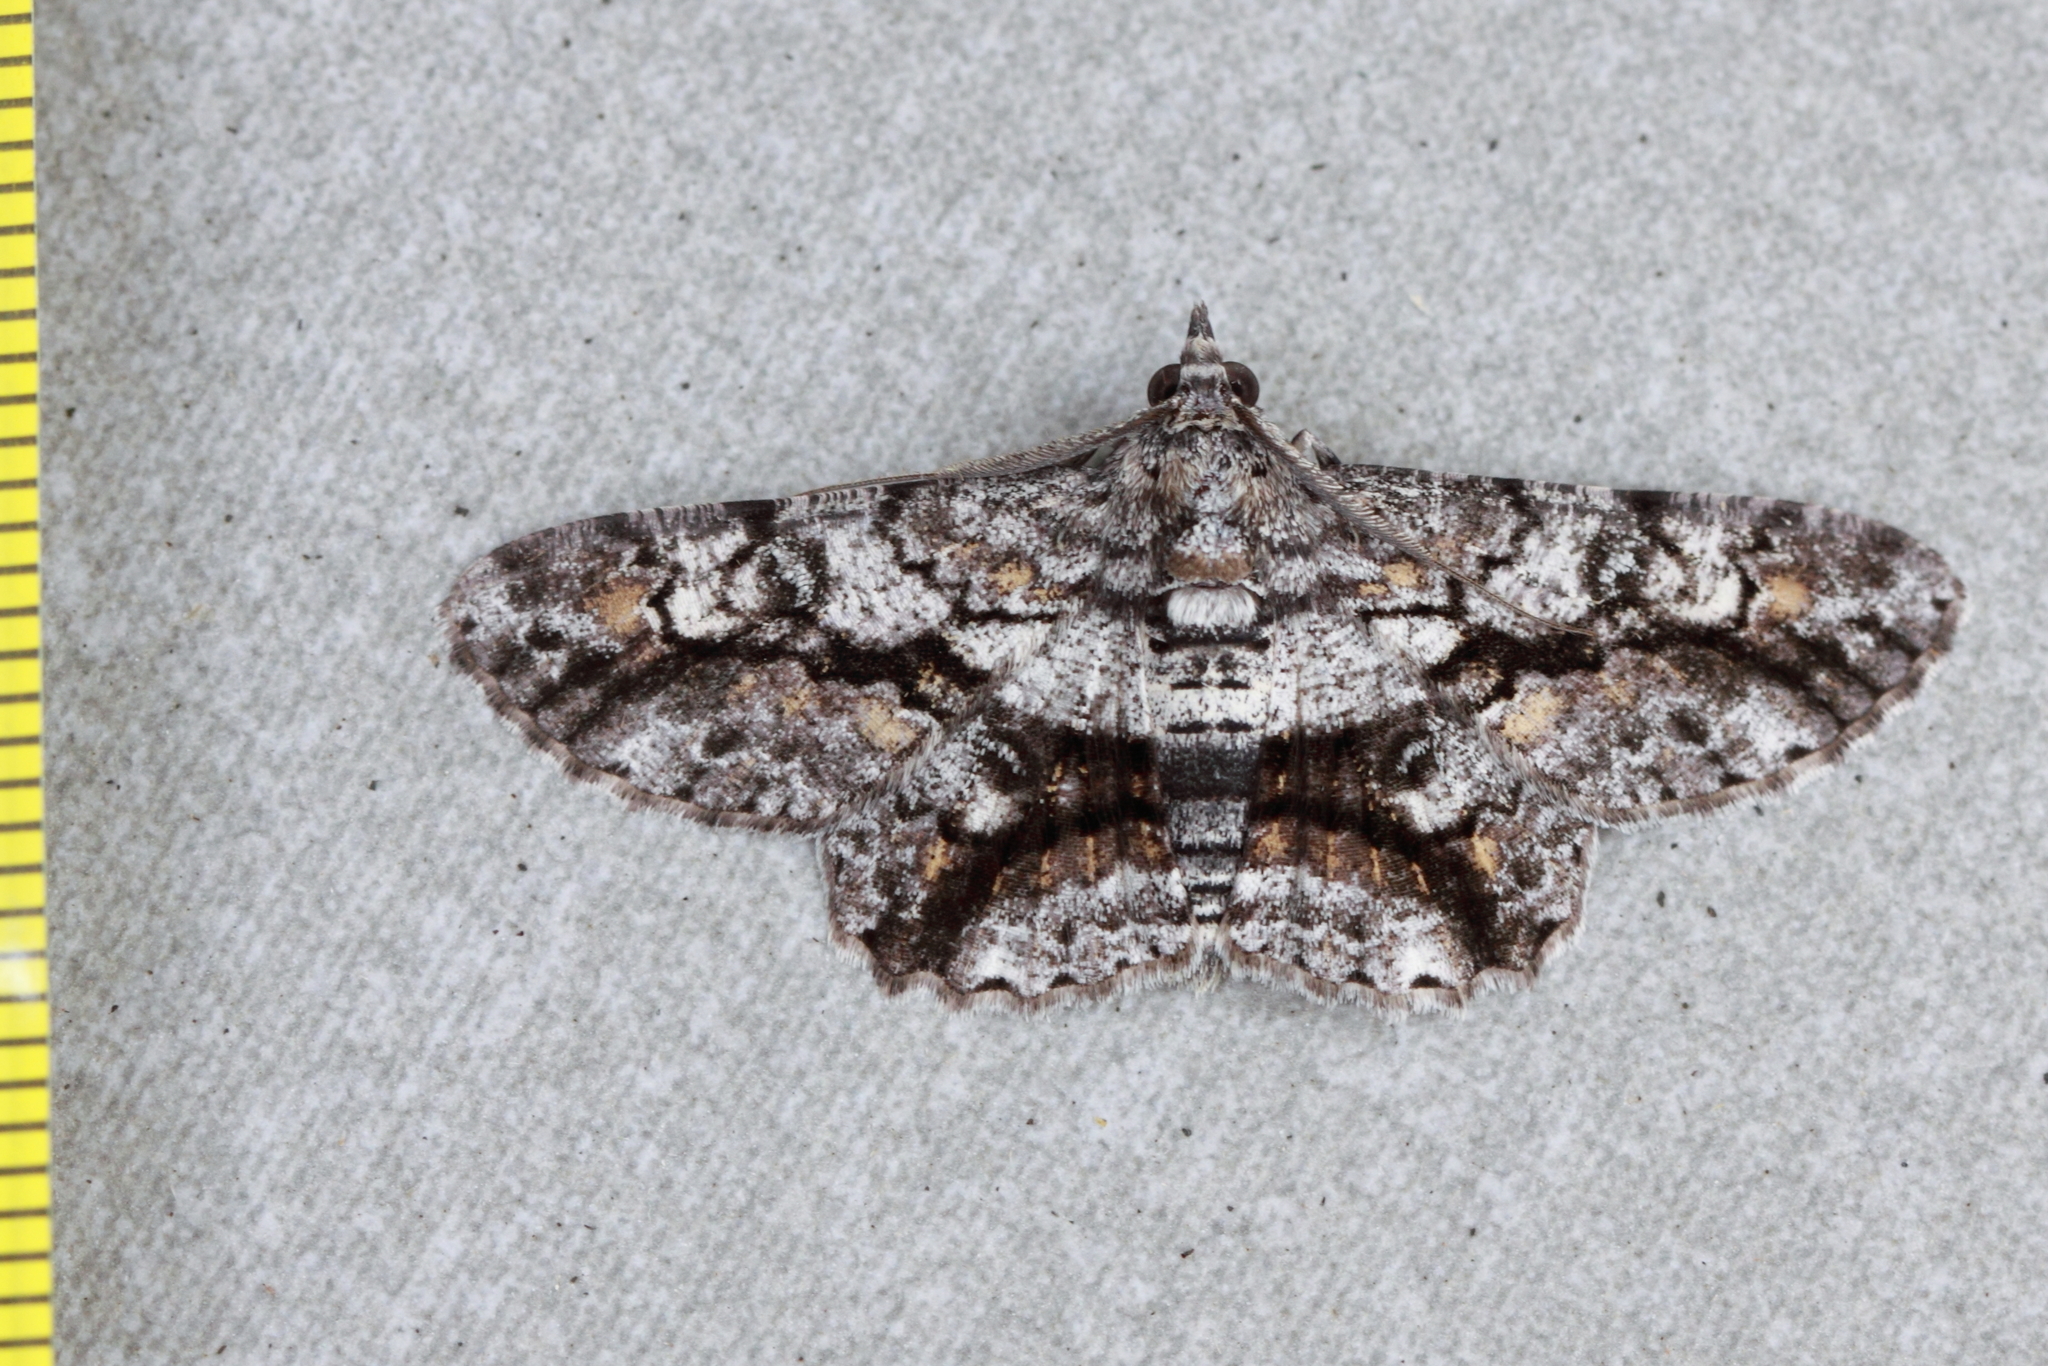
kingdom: Animalia
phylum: Arthropoda
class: Insecta
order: Lepidoptera
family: Geometridae
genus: Cleora
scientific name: Cleora injectaria
